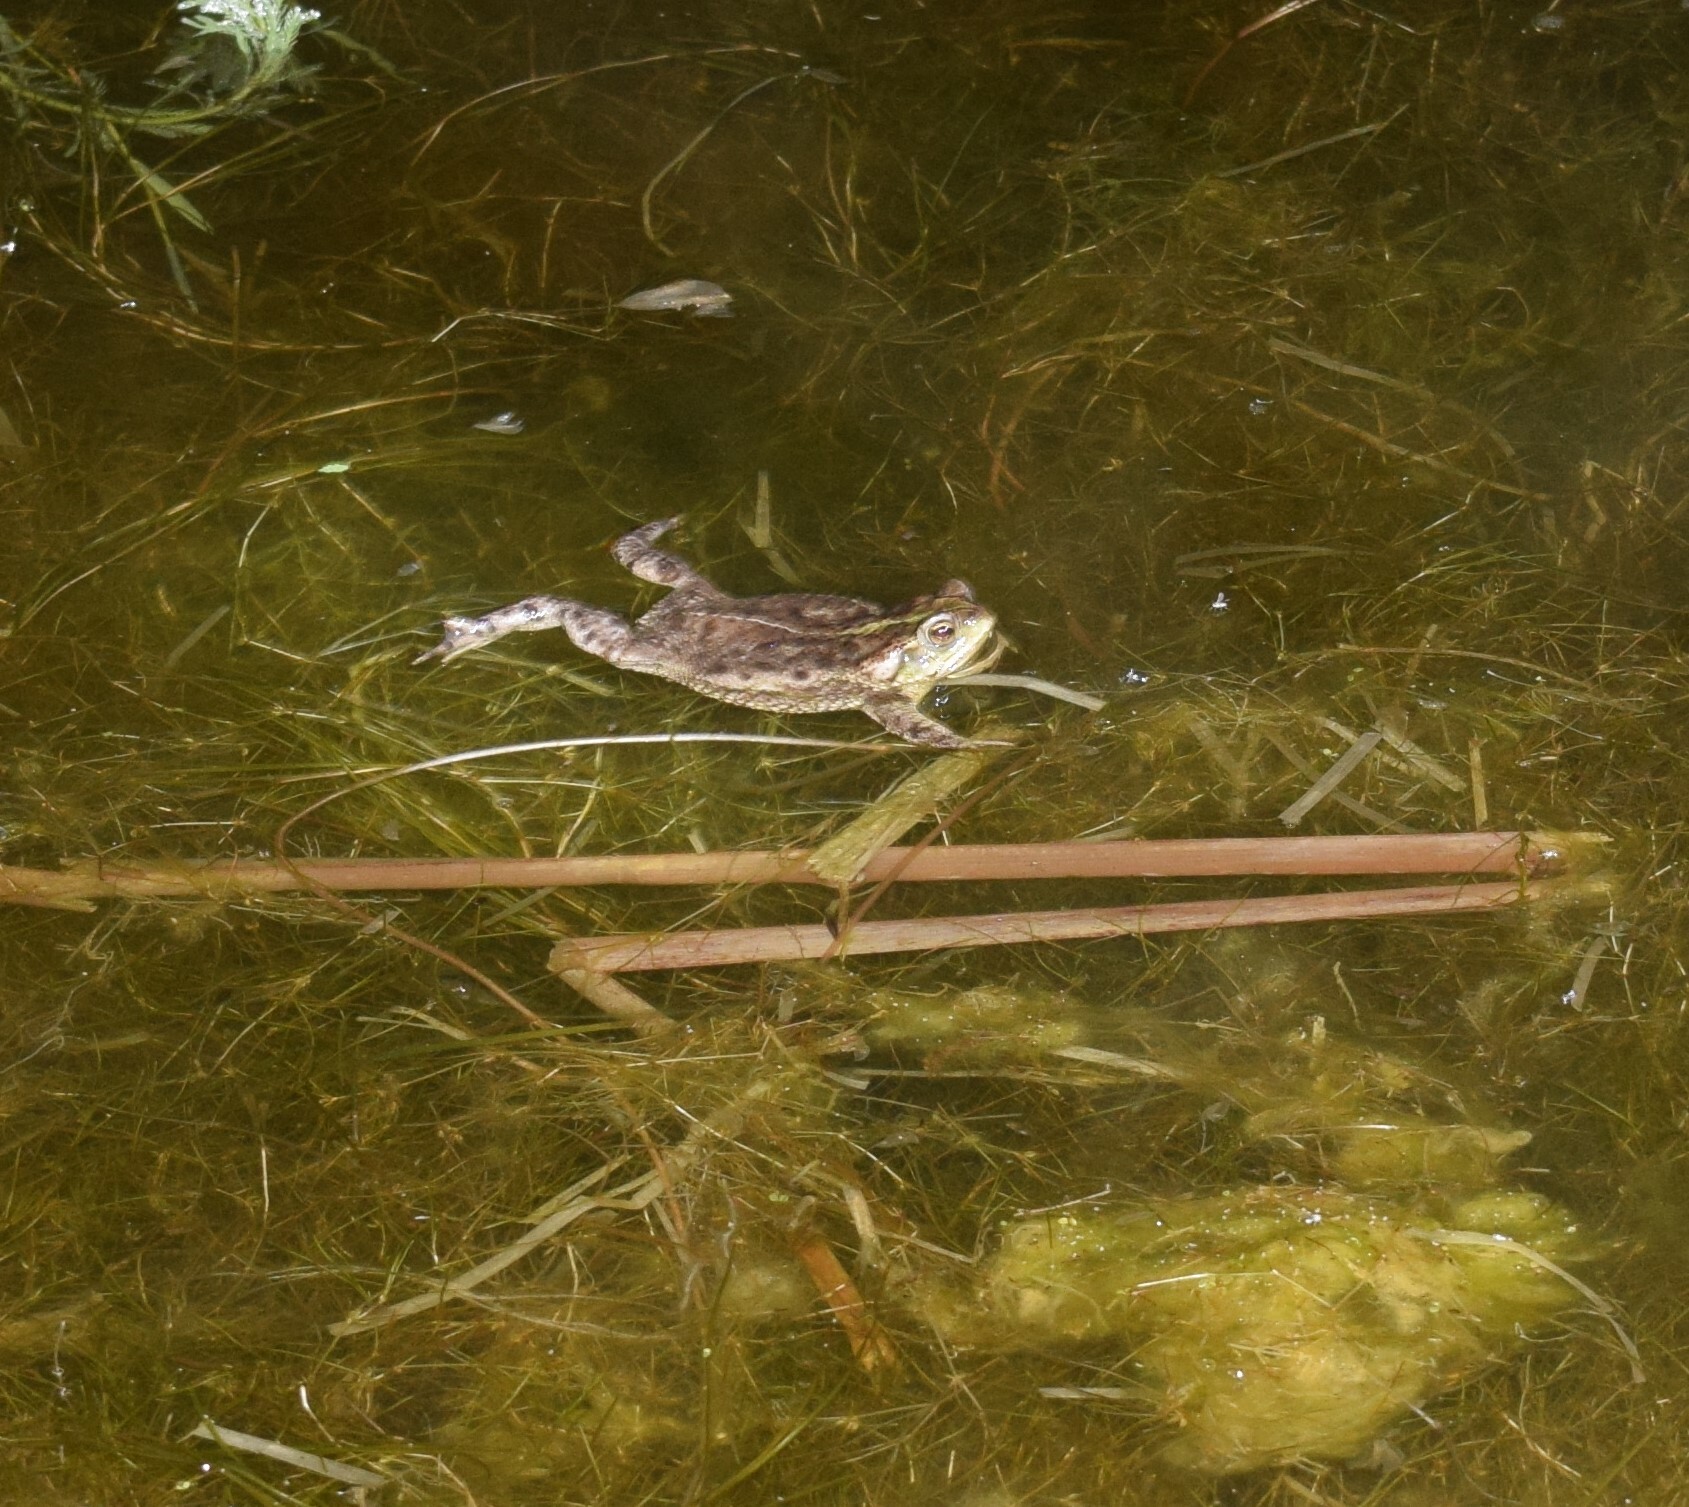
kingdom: Animalia
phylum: Chordata
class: Amphibia
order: Anura
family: Bufonidae
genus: Rhinella
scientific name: Rhinella dorbignyi
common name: D´orbigny’s toad
